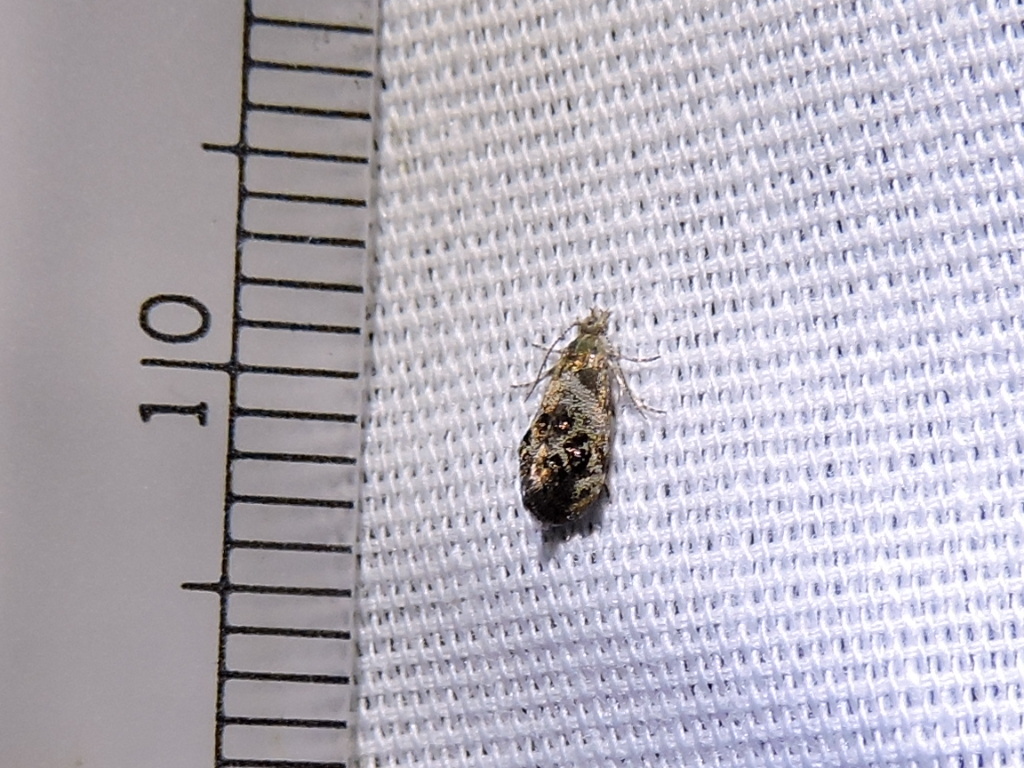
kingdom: Animalia
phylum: Arthropoda
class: Insecta
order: Lepidoptera
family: Choreutidae
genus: Tebenna
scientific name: Tebenna gnaphaliella
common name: Everlasting tebenna moth
